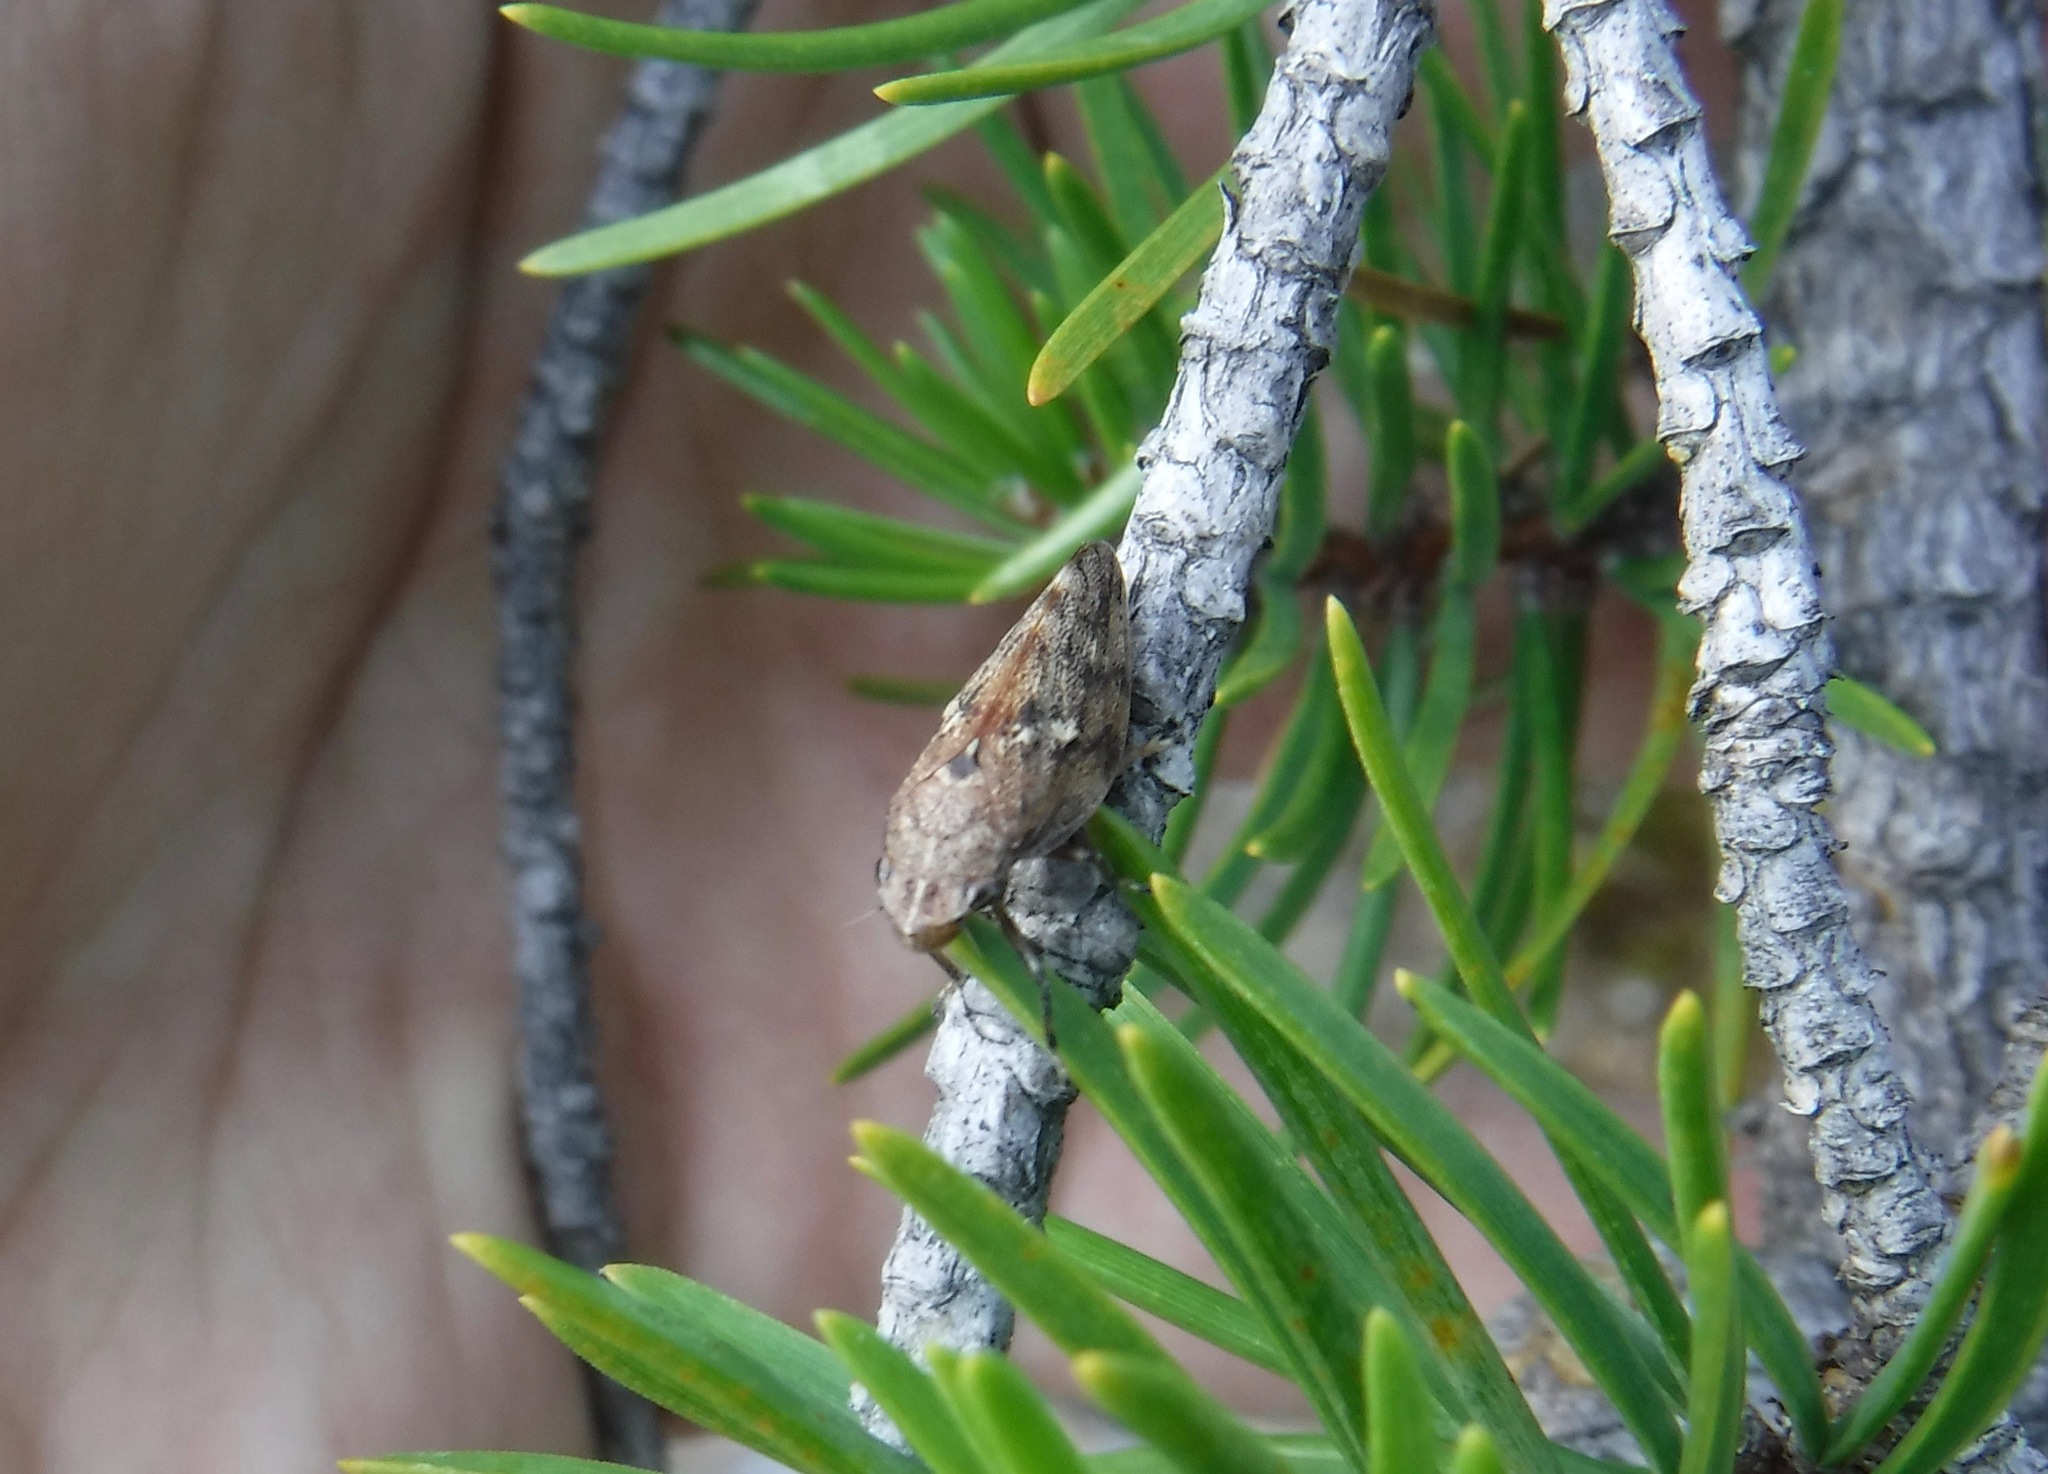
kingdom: Animalia
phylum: Arthropoda
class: Insecta
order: Hemiptera
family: Epipygidae
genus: Epipyga
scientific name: Epipyga cribrata
